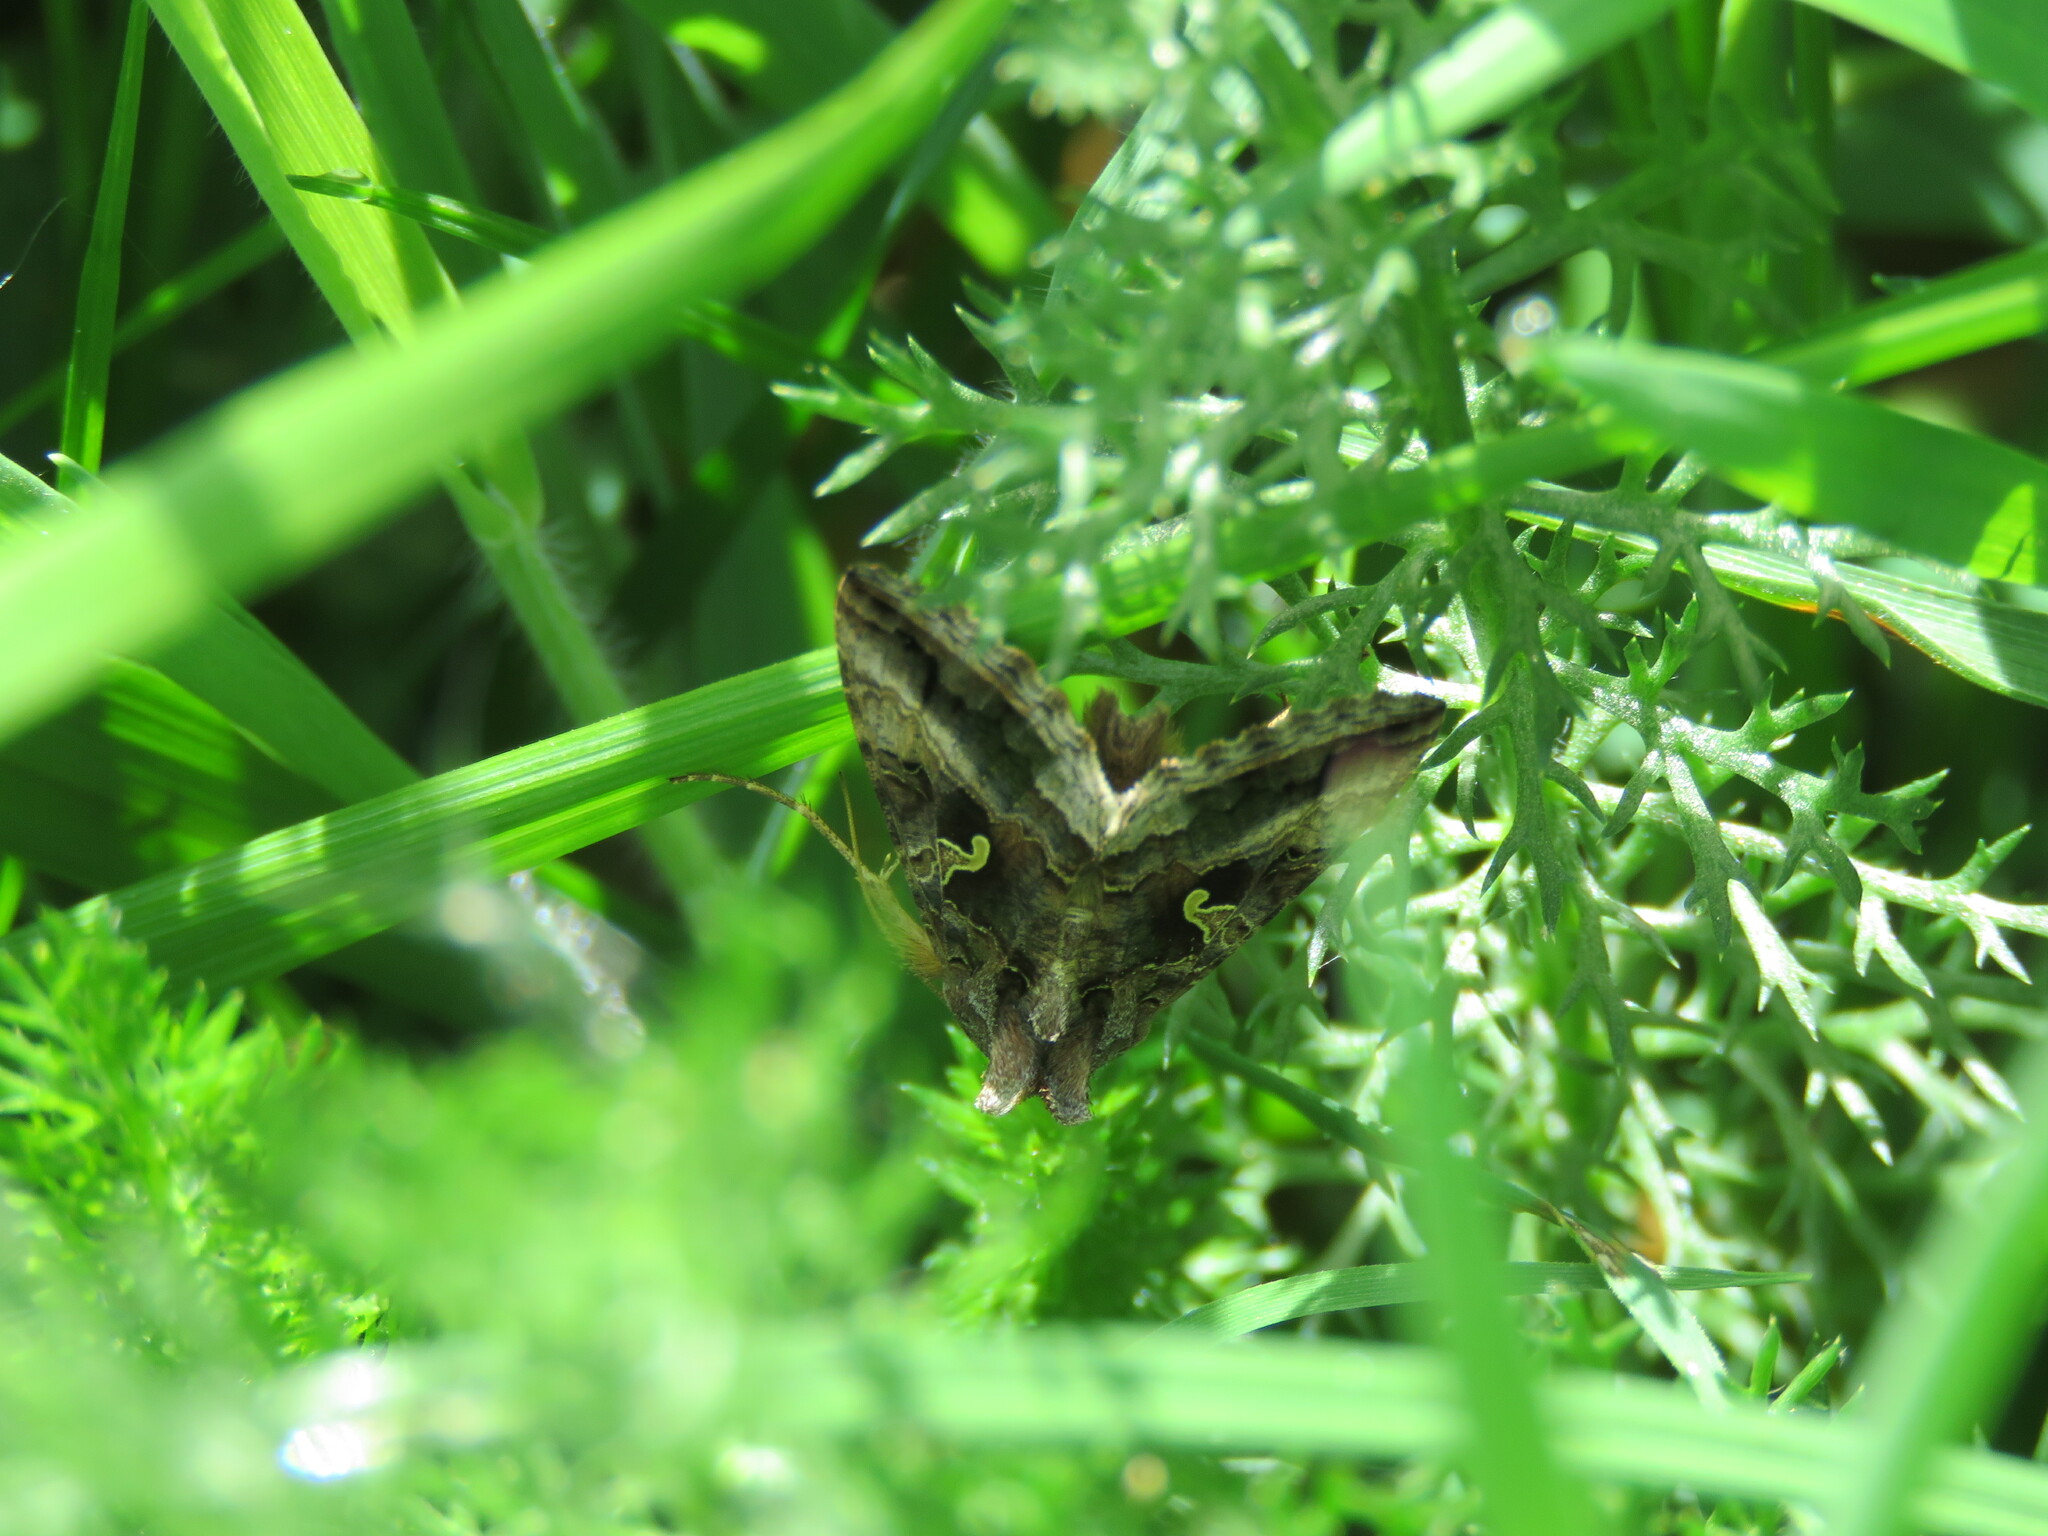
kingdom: Animalia
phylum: Arthropoda
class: Insecta
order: Lepidoptera
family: Noctuidae
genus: Autographa
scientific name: Autographa gamma
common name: Silver y
